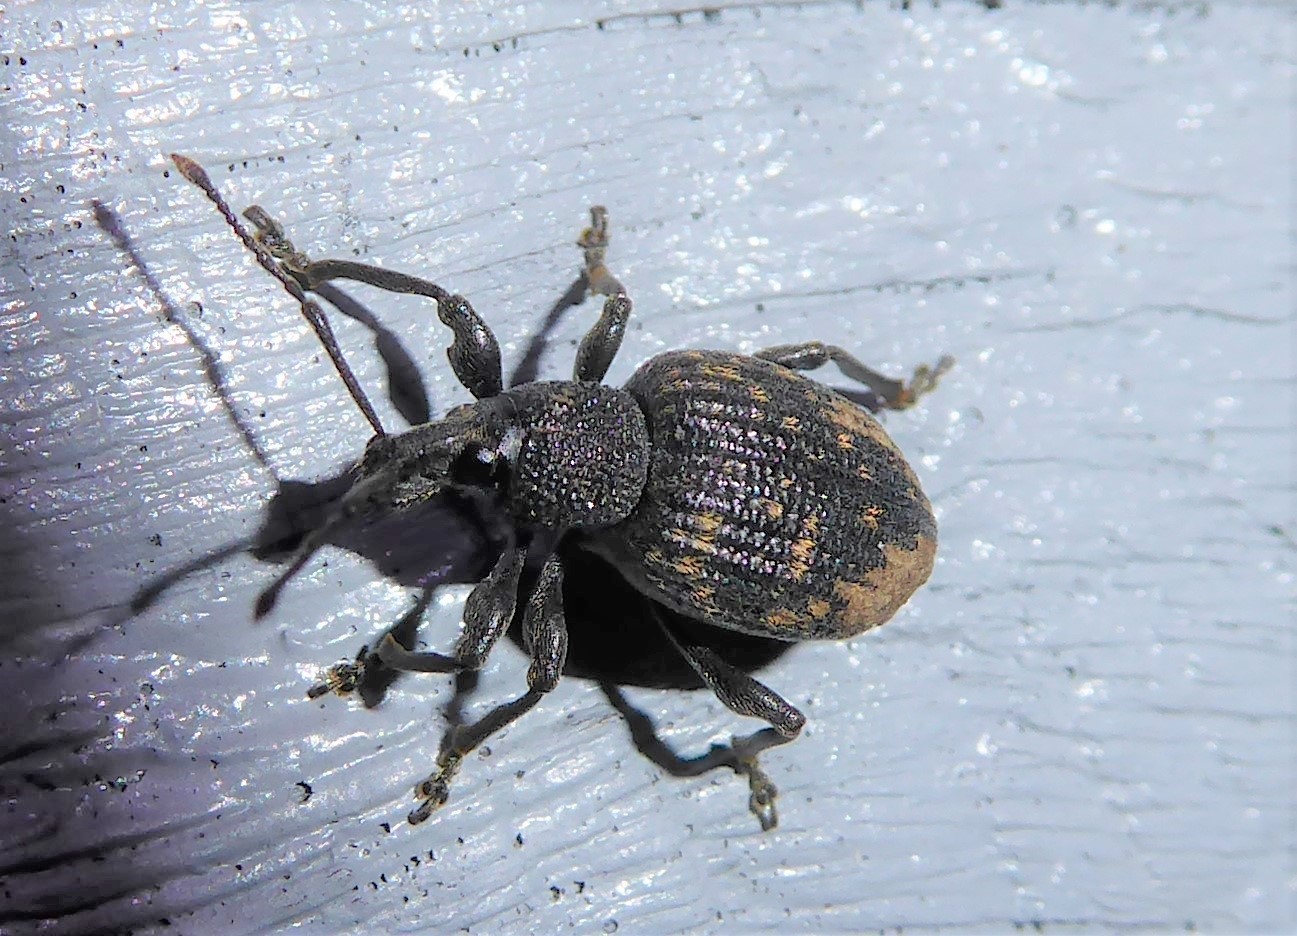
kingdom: Animalia
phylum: Arthropoda
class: Insecta
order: Coleoptera
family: Curculionidae
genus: Otiorhynchus
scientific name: Otiorhynchus sulcatus
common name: Black vine weevil
